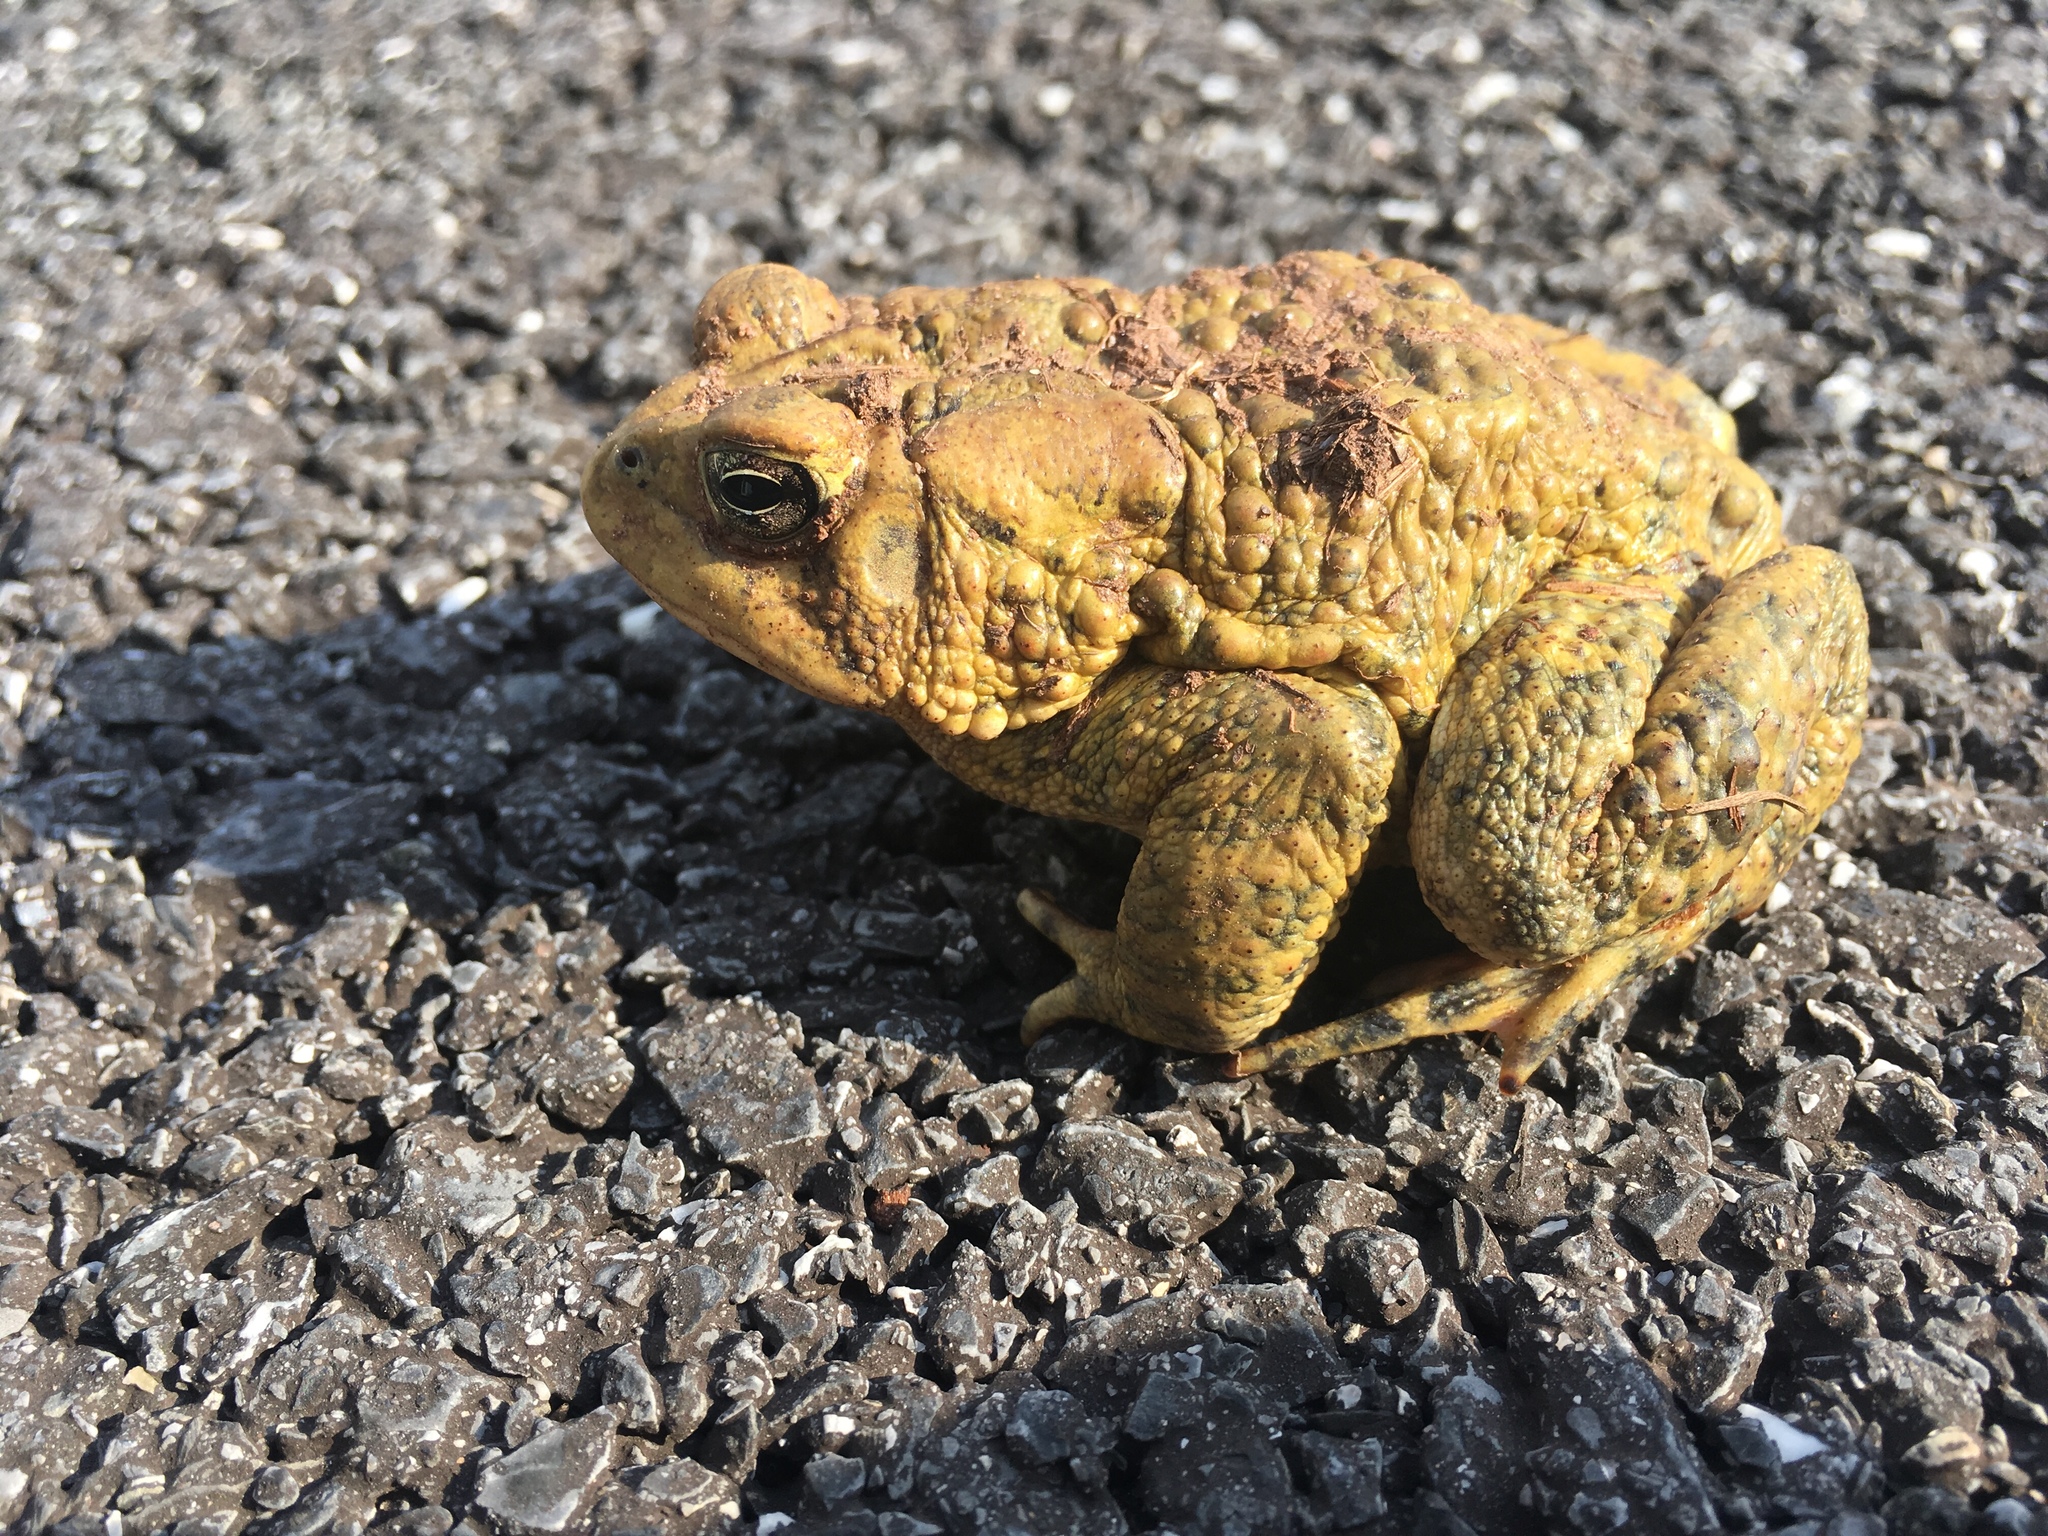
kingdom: Animalia
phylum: Chordata
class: Amphibia
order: Anura
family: Bufonidae
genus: Anaxyrus
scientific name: Anaxyrus americanus
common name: American toad
